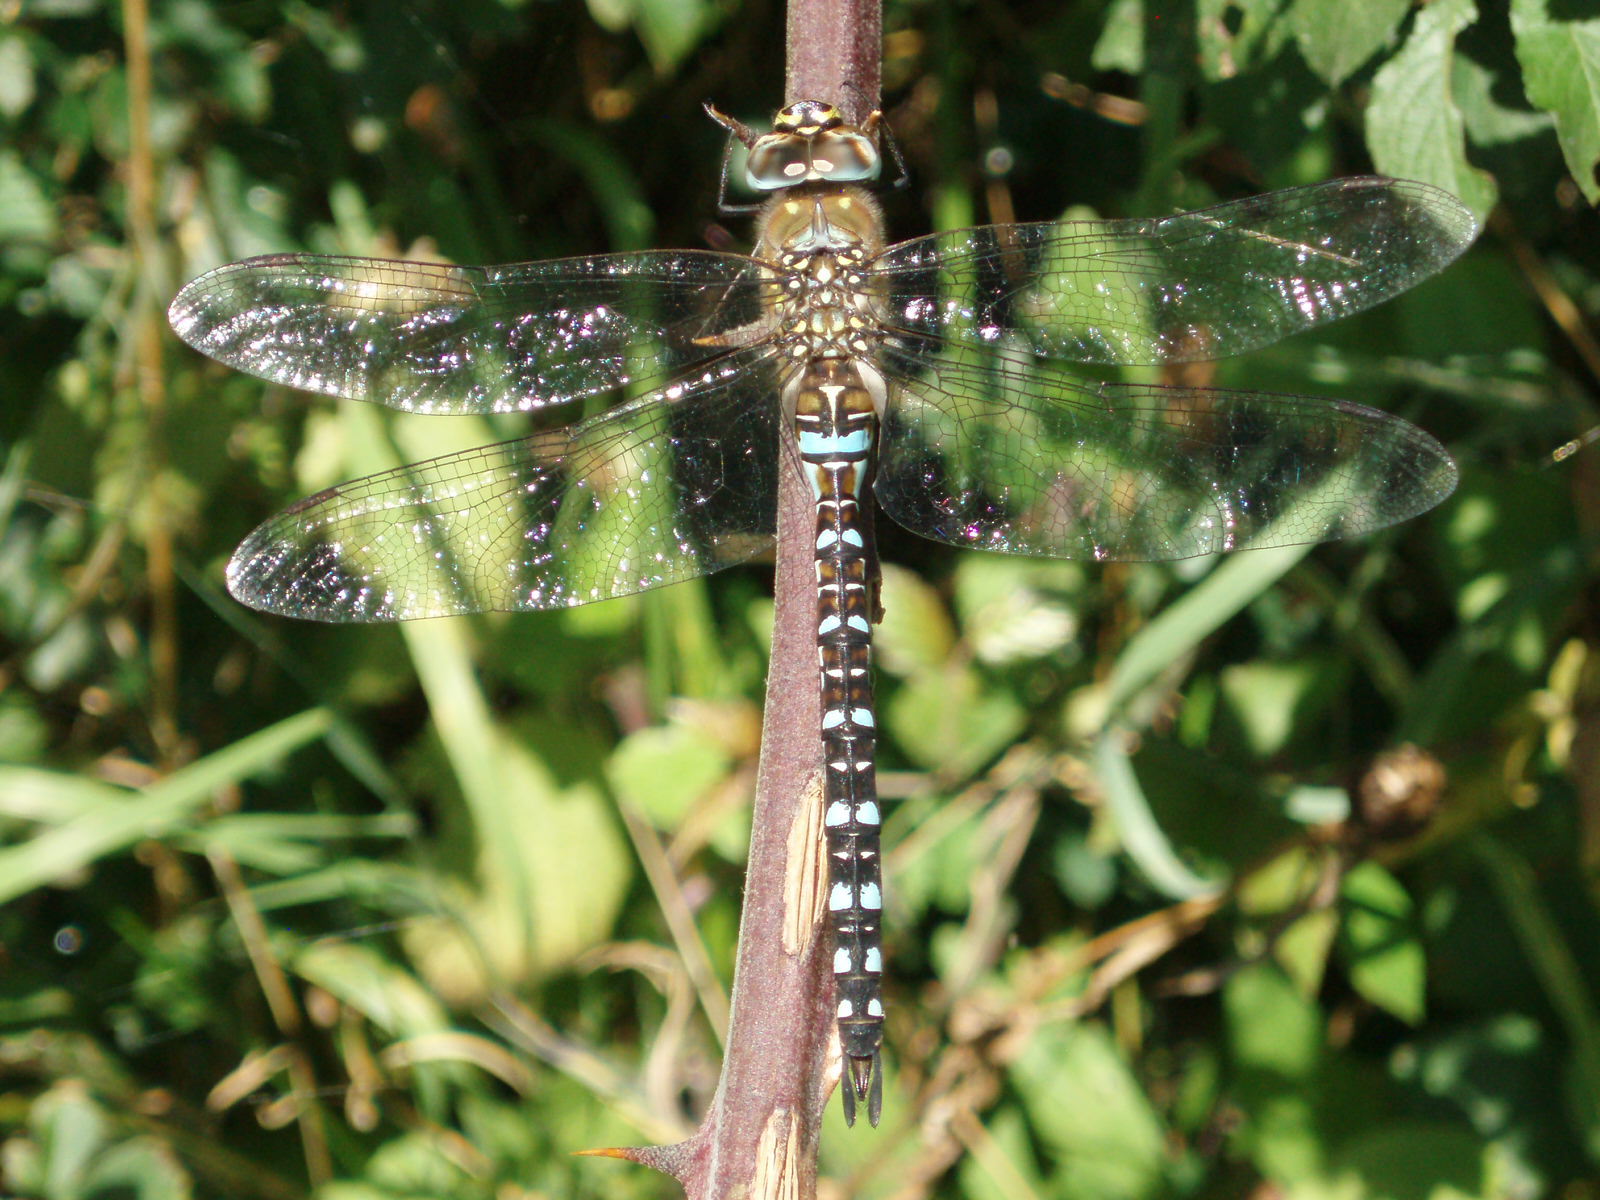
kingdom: Animalia
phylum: Arthropoda
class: Insecta
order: Odonata
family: Aeshnidae
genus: Aeshna
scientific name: Aeshna mixta
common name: Migrant hawker
